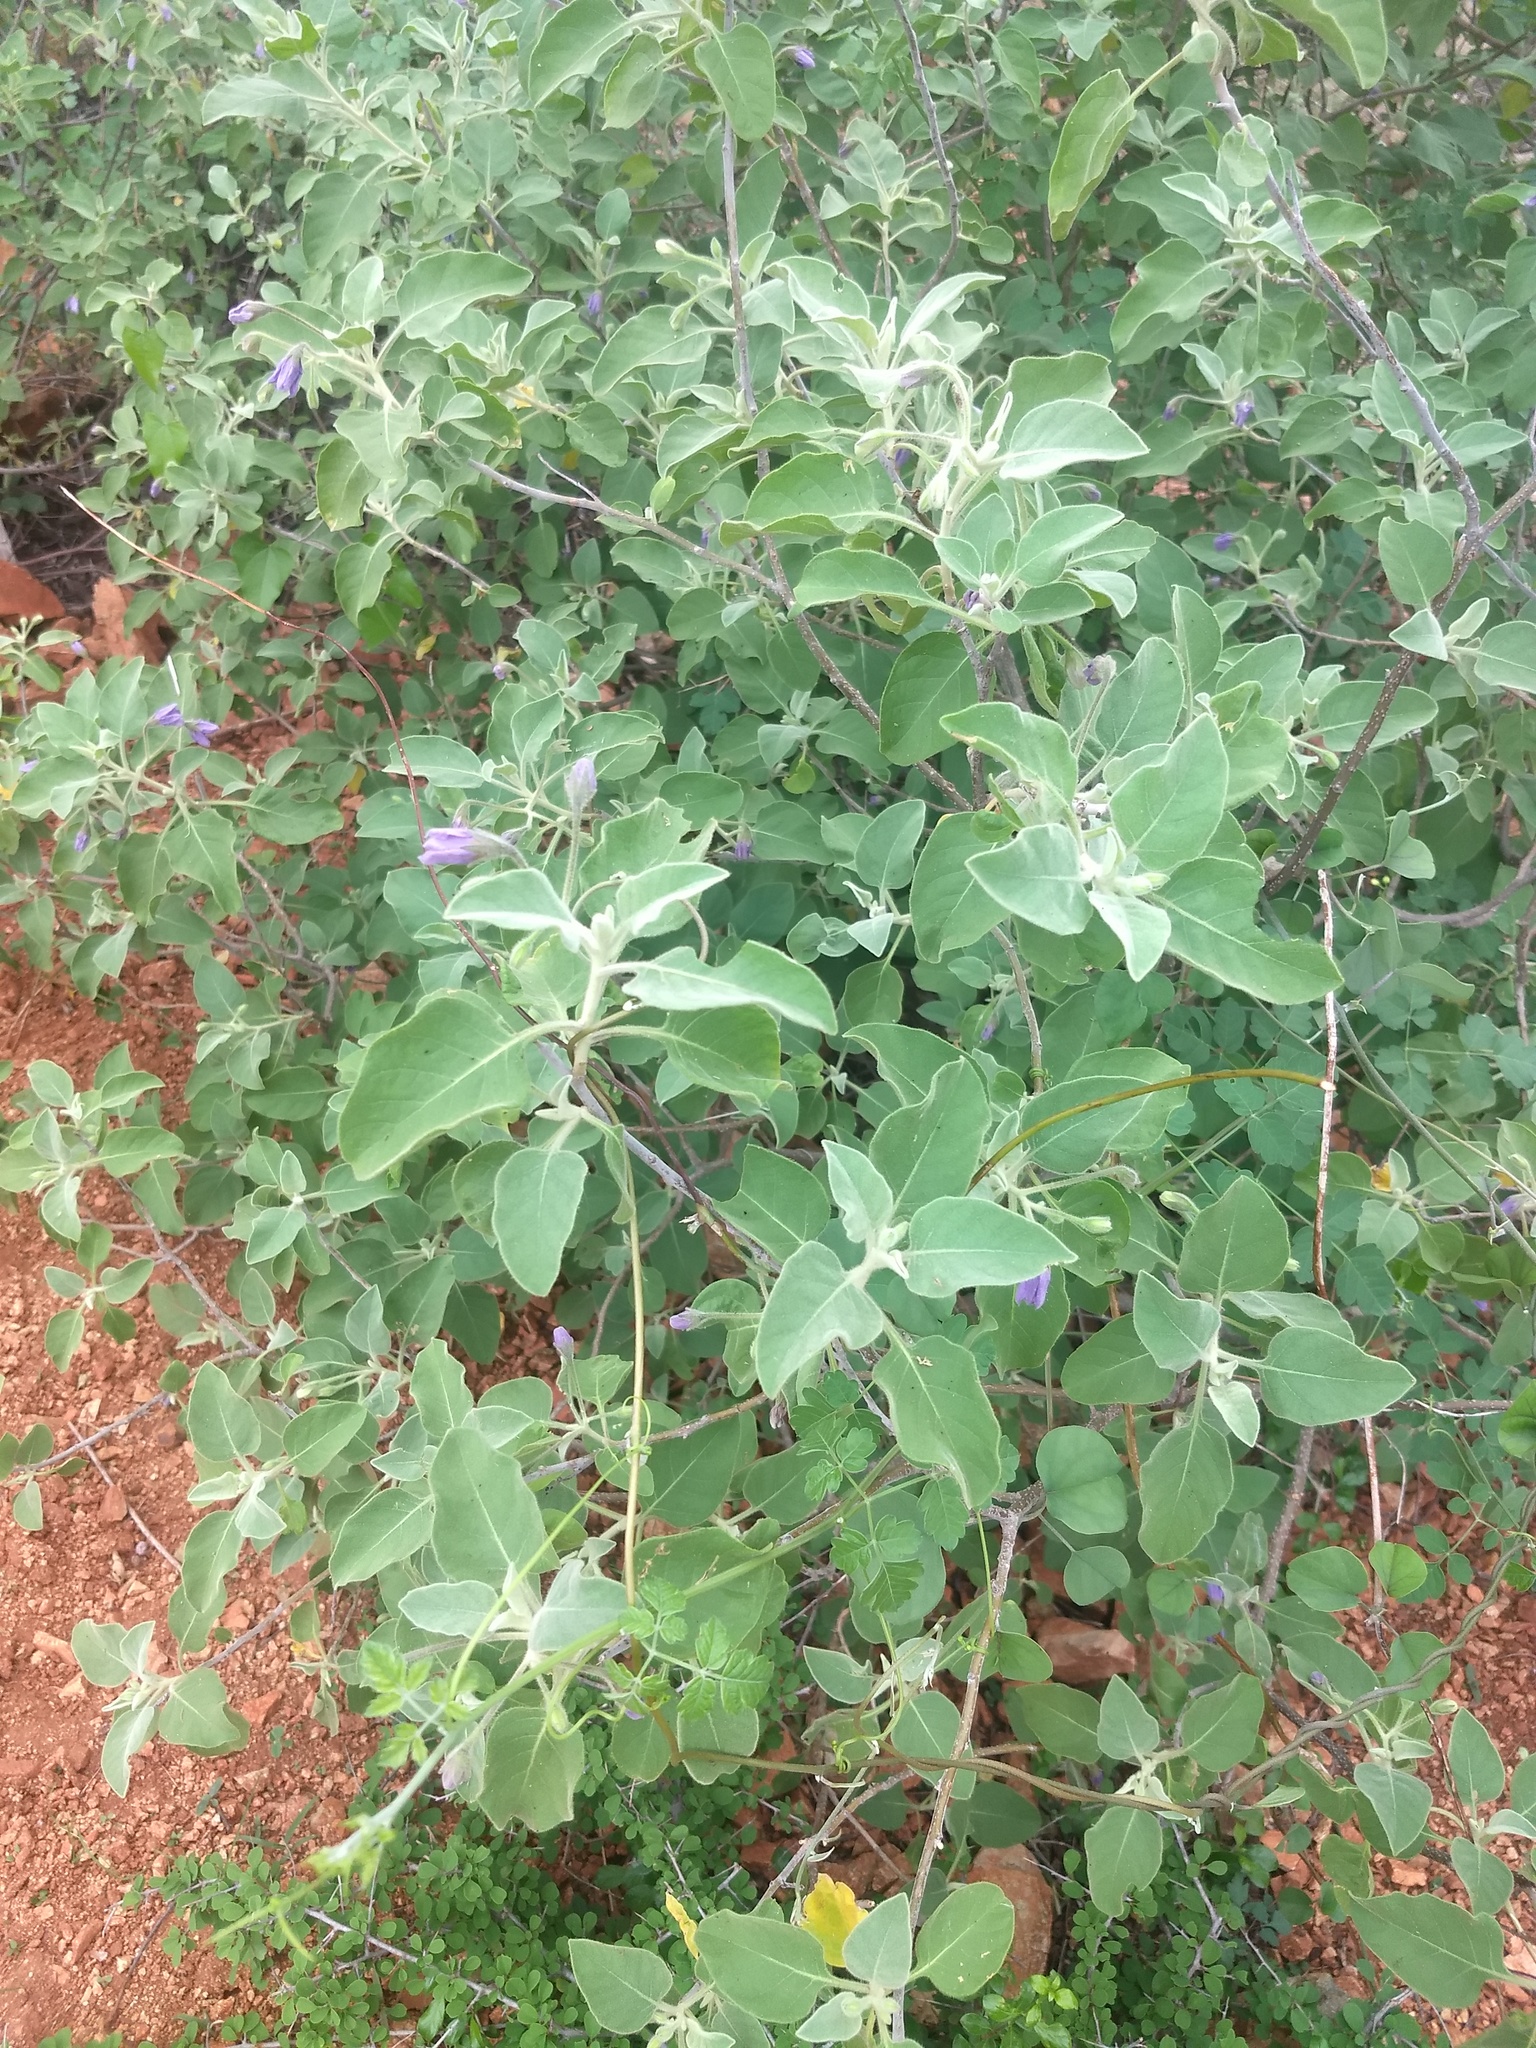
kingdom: Plantae
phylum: Tracheophyta
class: Magnoliopsida
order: Solanales
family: Solanaceae
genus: Solanum
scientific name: Solanum pubescens
